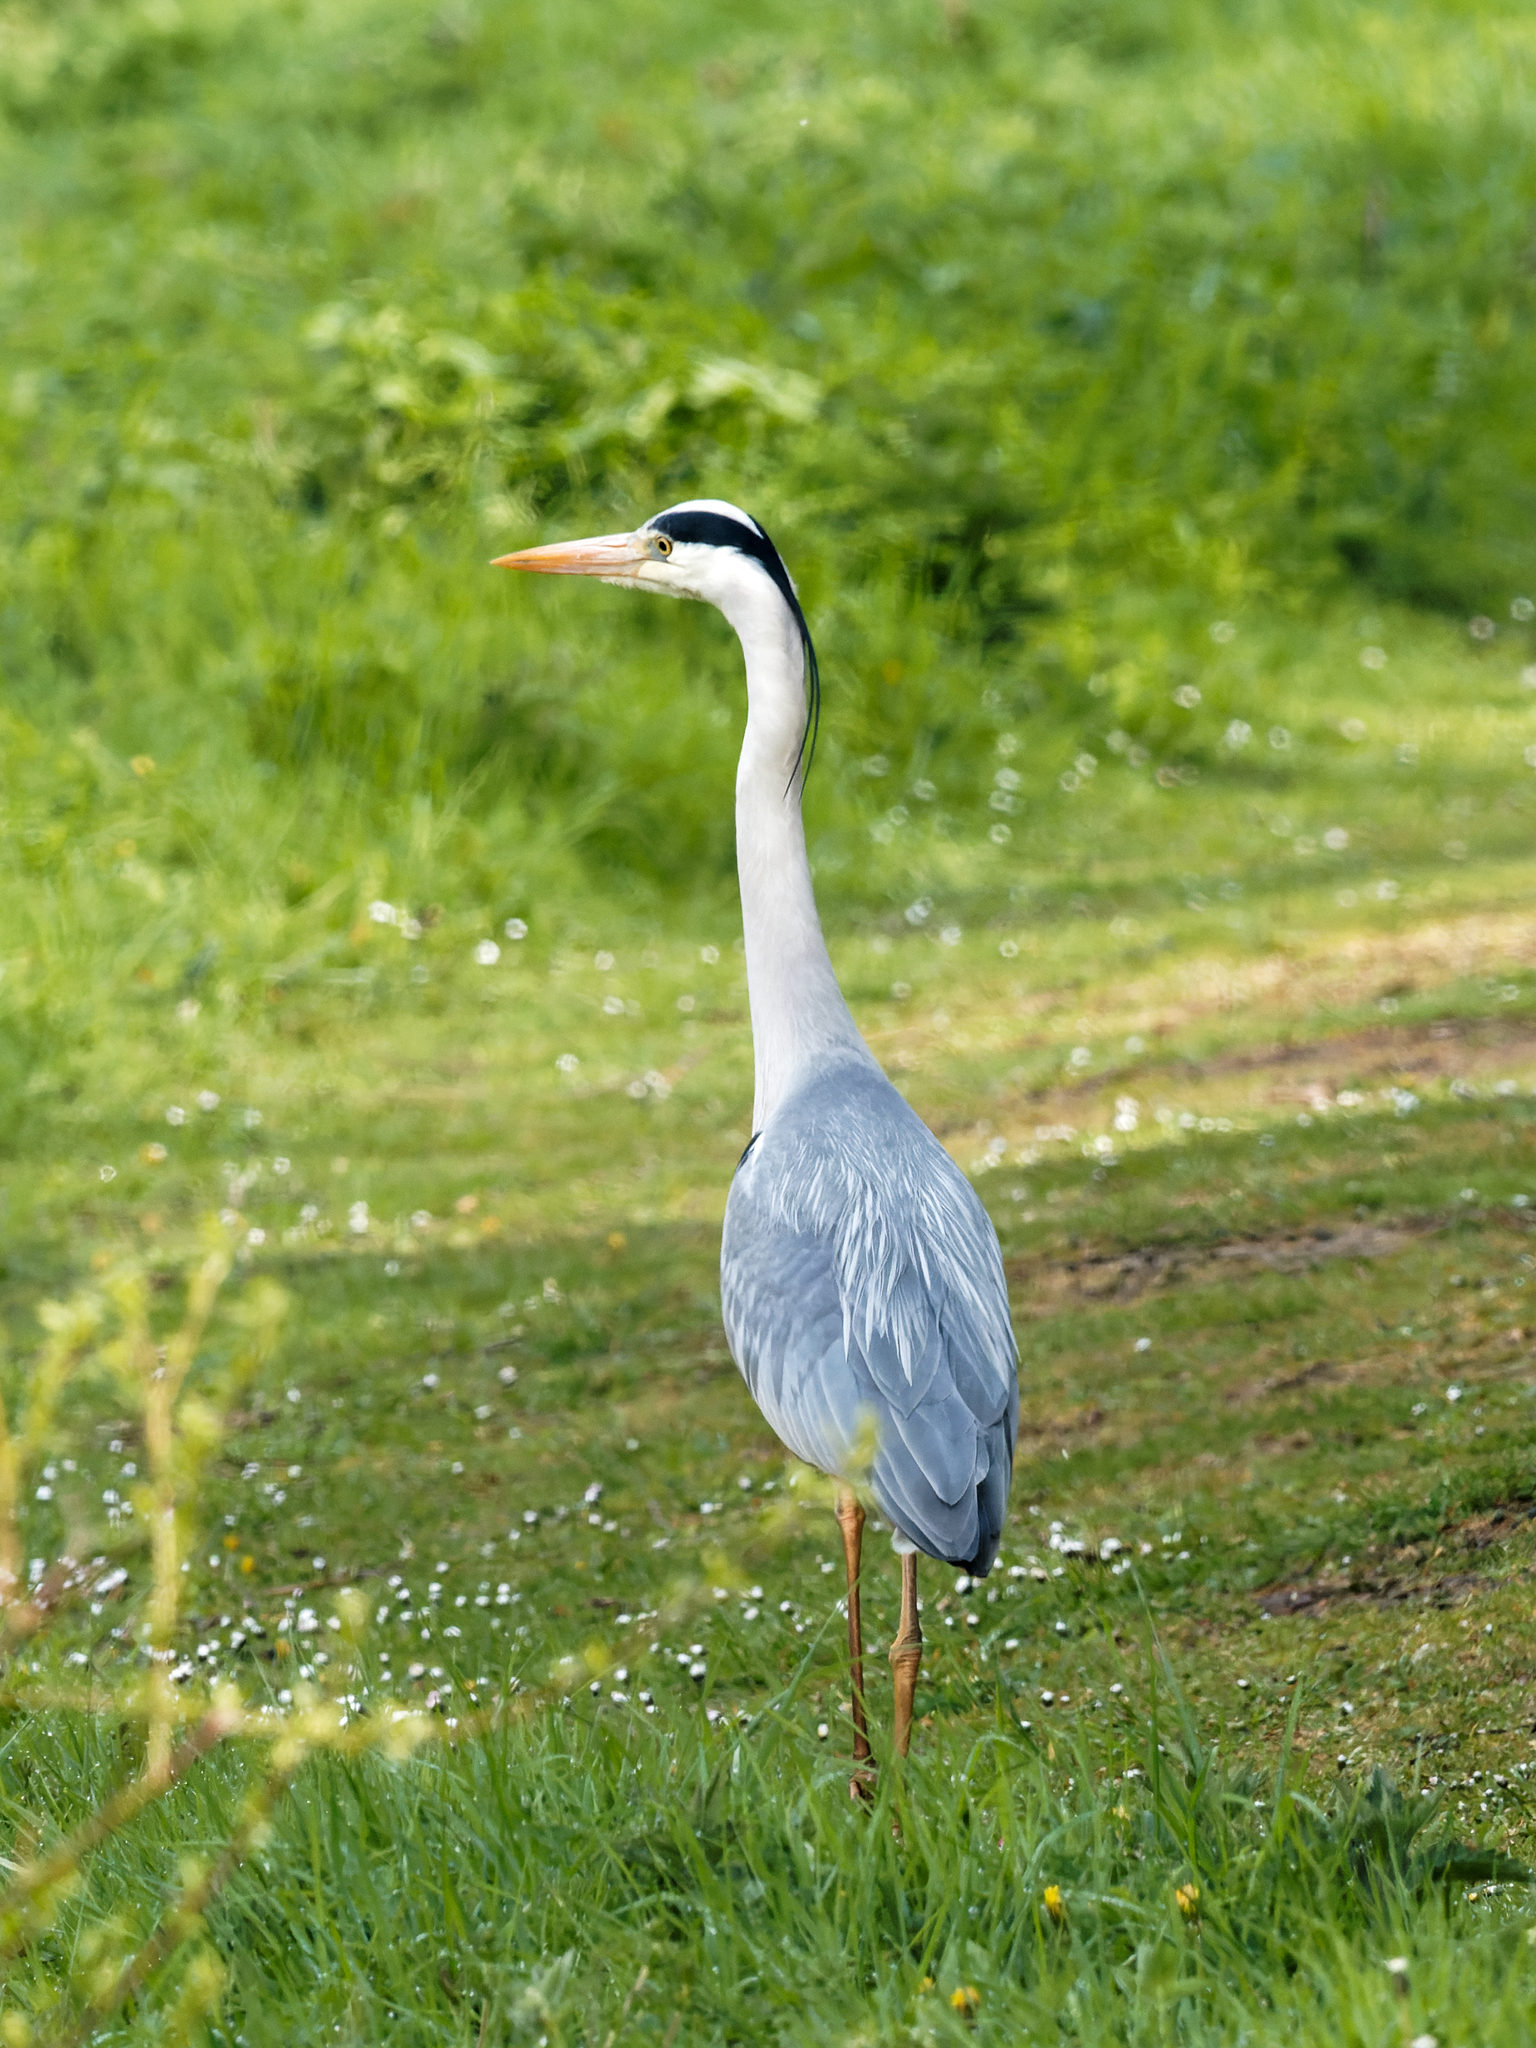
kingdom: Animalia
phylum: Chordata
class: Aves
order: Pelecaniformes
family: Ardeidae
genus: Ardea
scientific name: Ardea cinerea
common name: Grey heron
